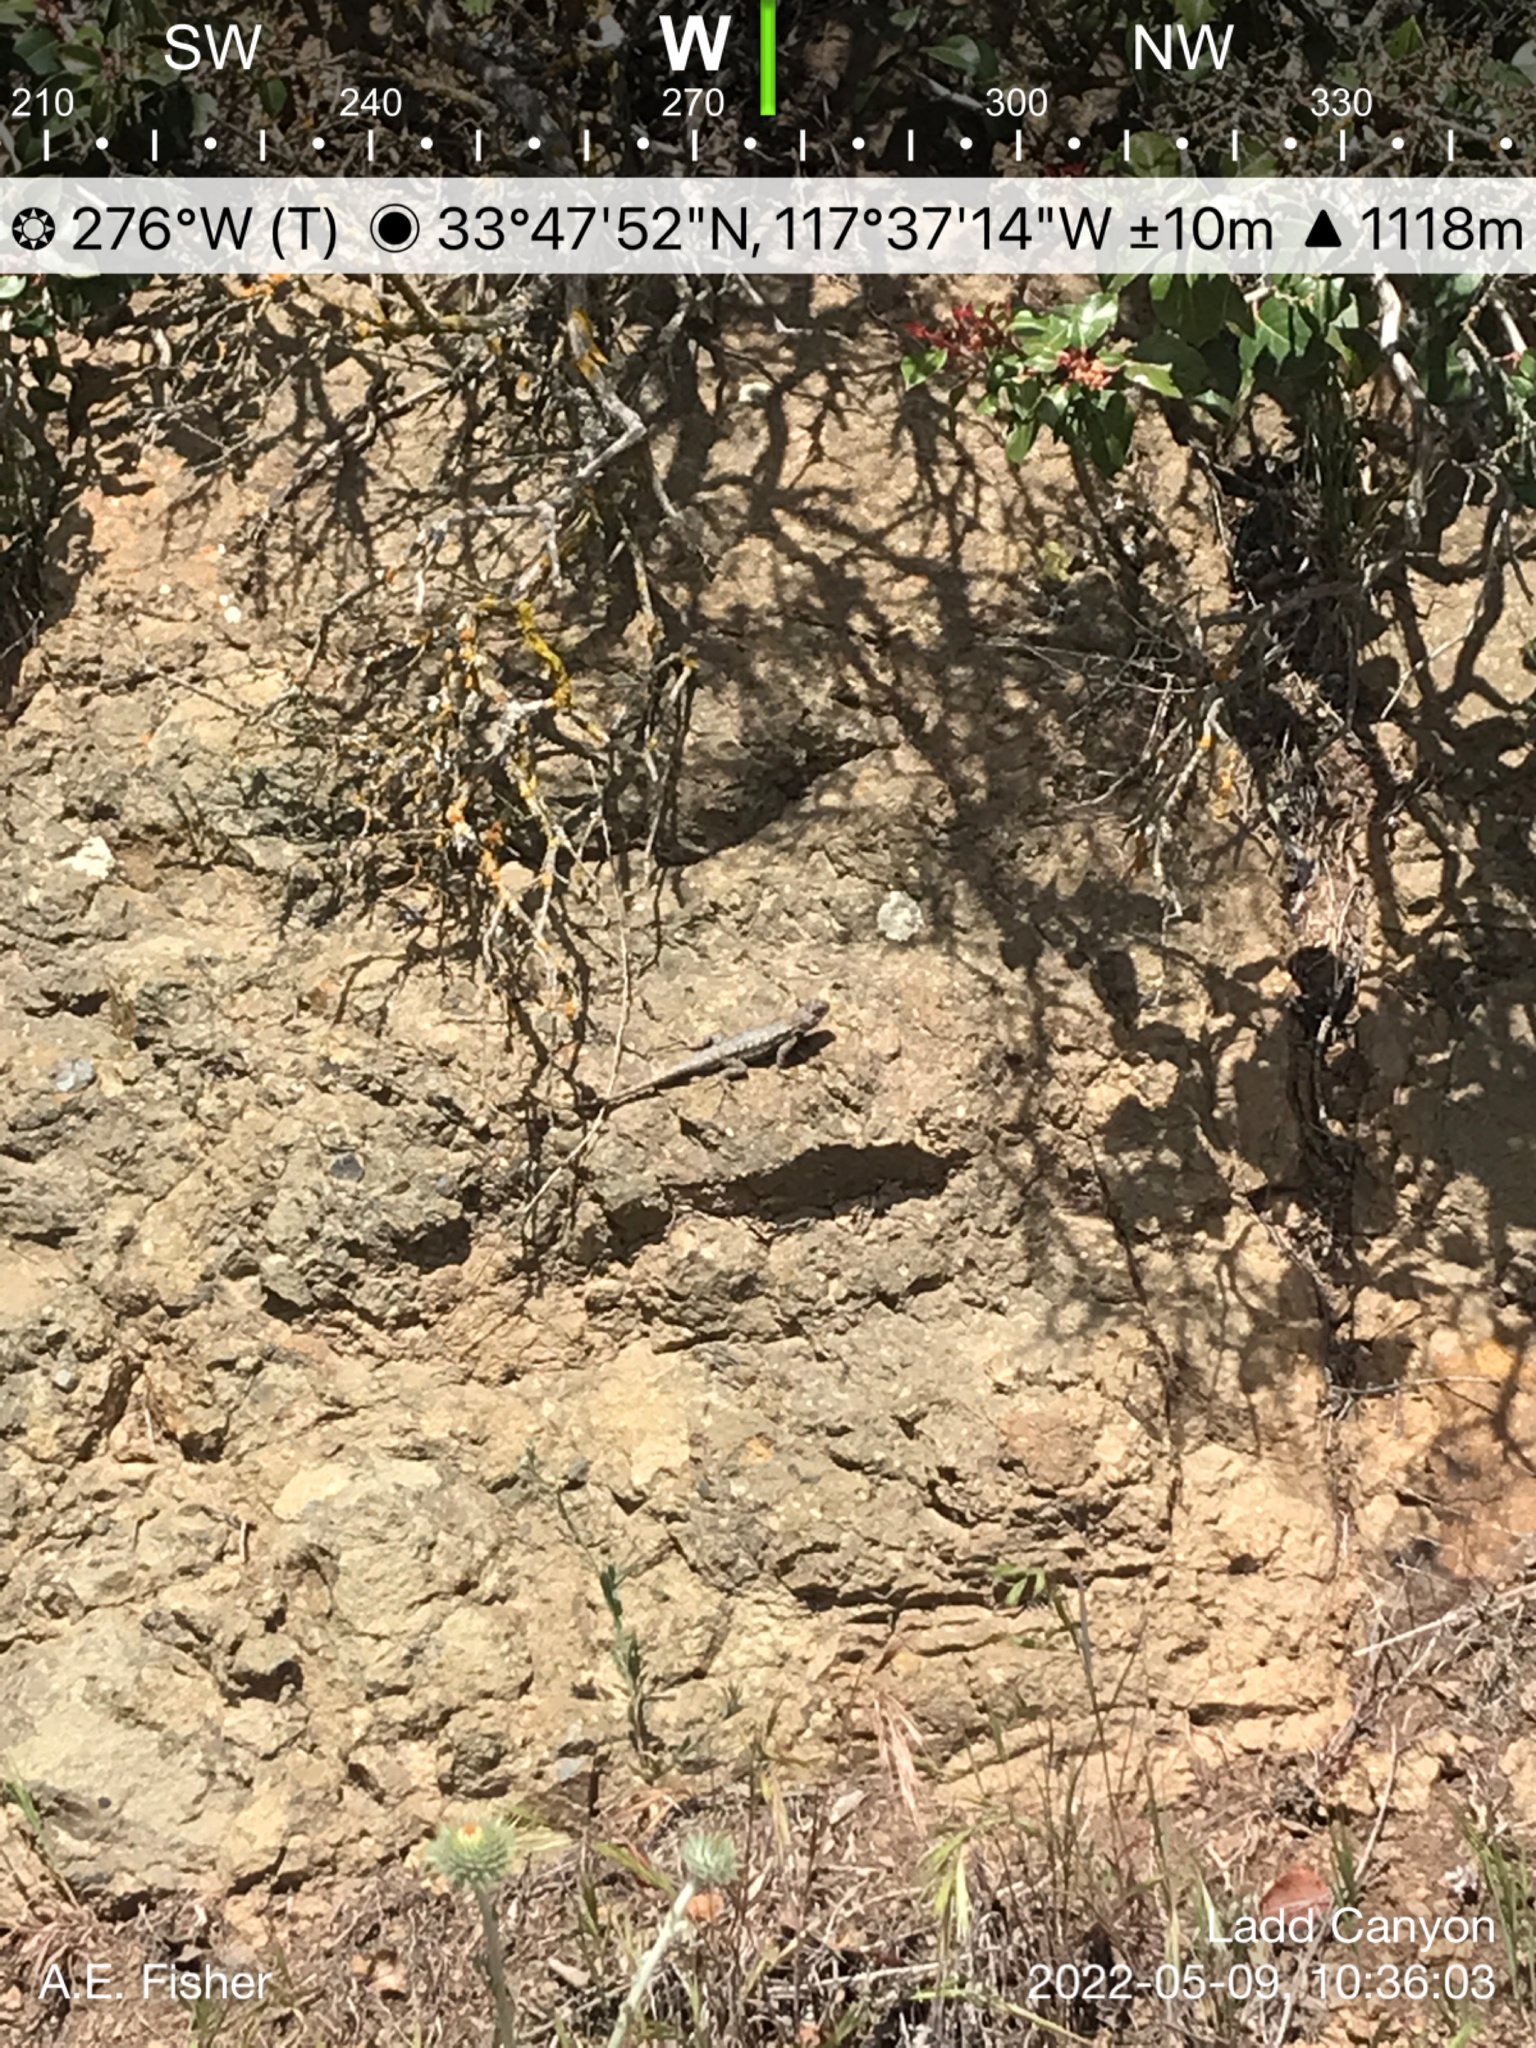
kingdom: Animalia
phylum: Chordata
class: Squamata
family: Phrynosomatidae
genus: Sceloporus
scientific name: Sceloporus occidentalis
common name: Western fence lizard
